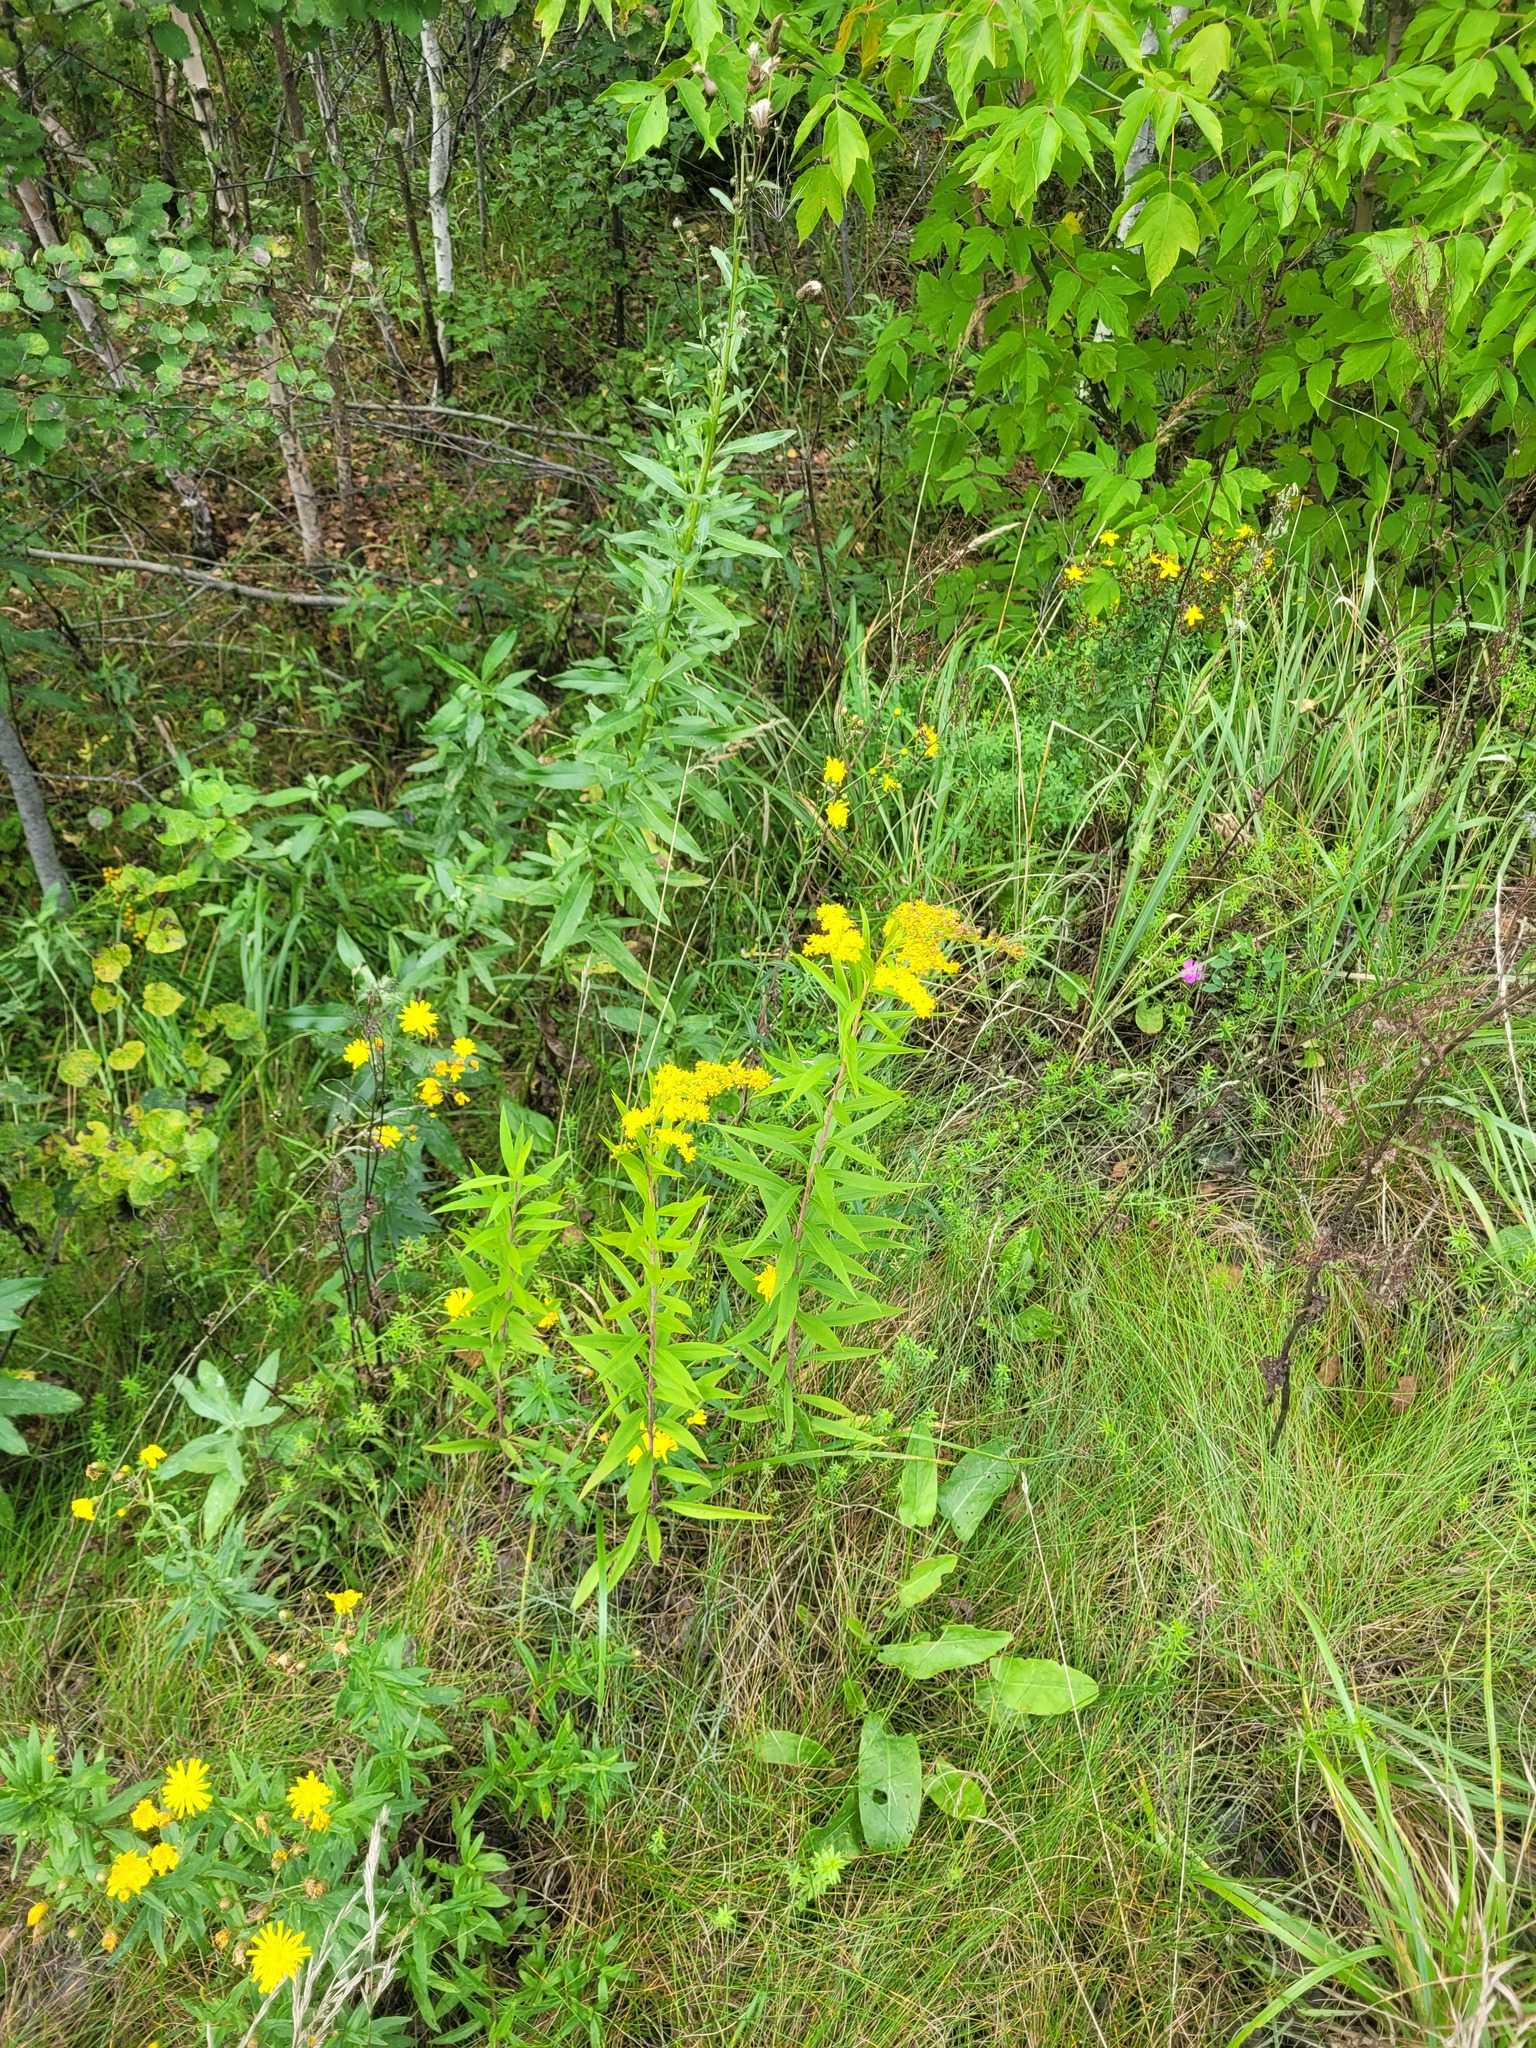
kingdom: Plantae
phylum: Tracheophyta
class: Magnoliopsida
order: Asterales
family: Asteraceae
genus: Solidago
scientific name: Solidago gigantea
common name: Giant goldenrod
